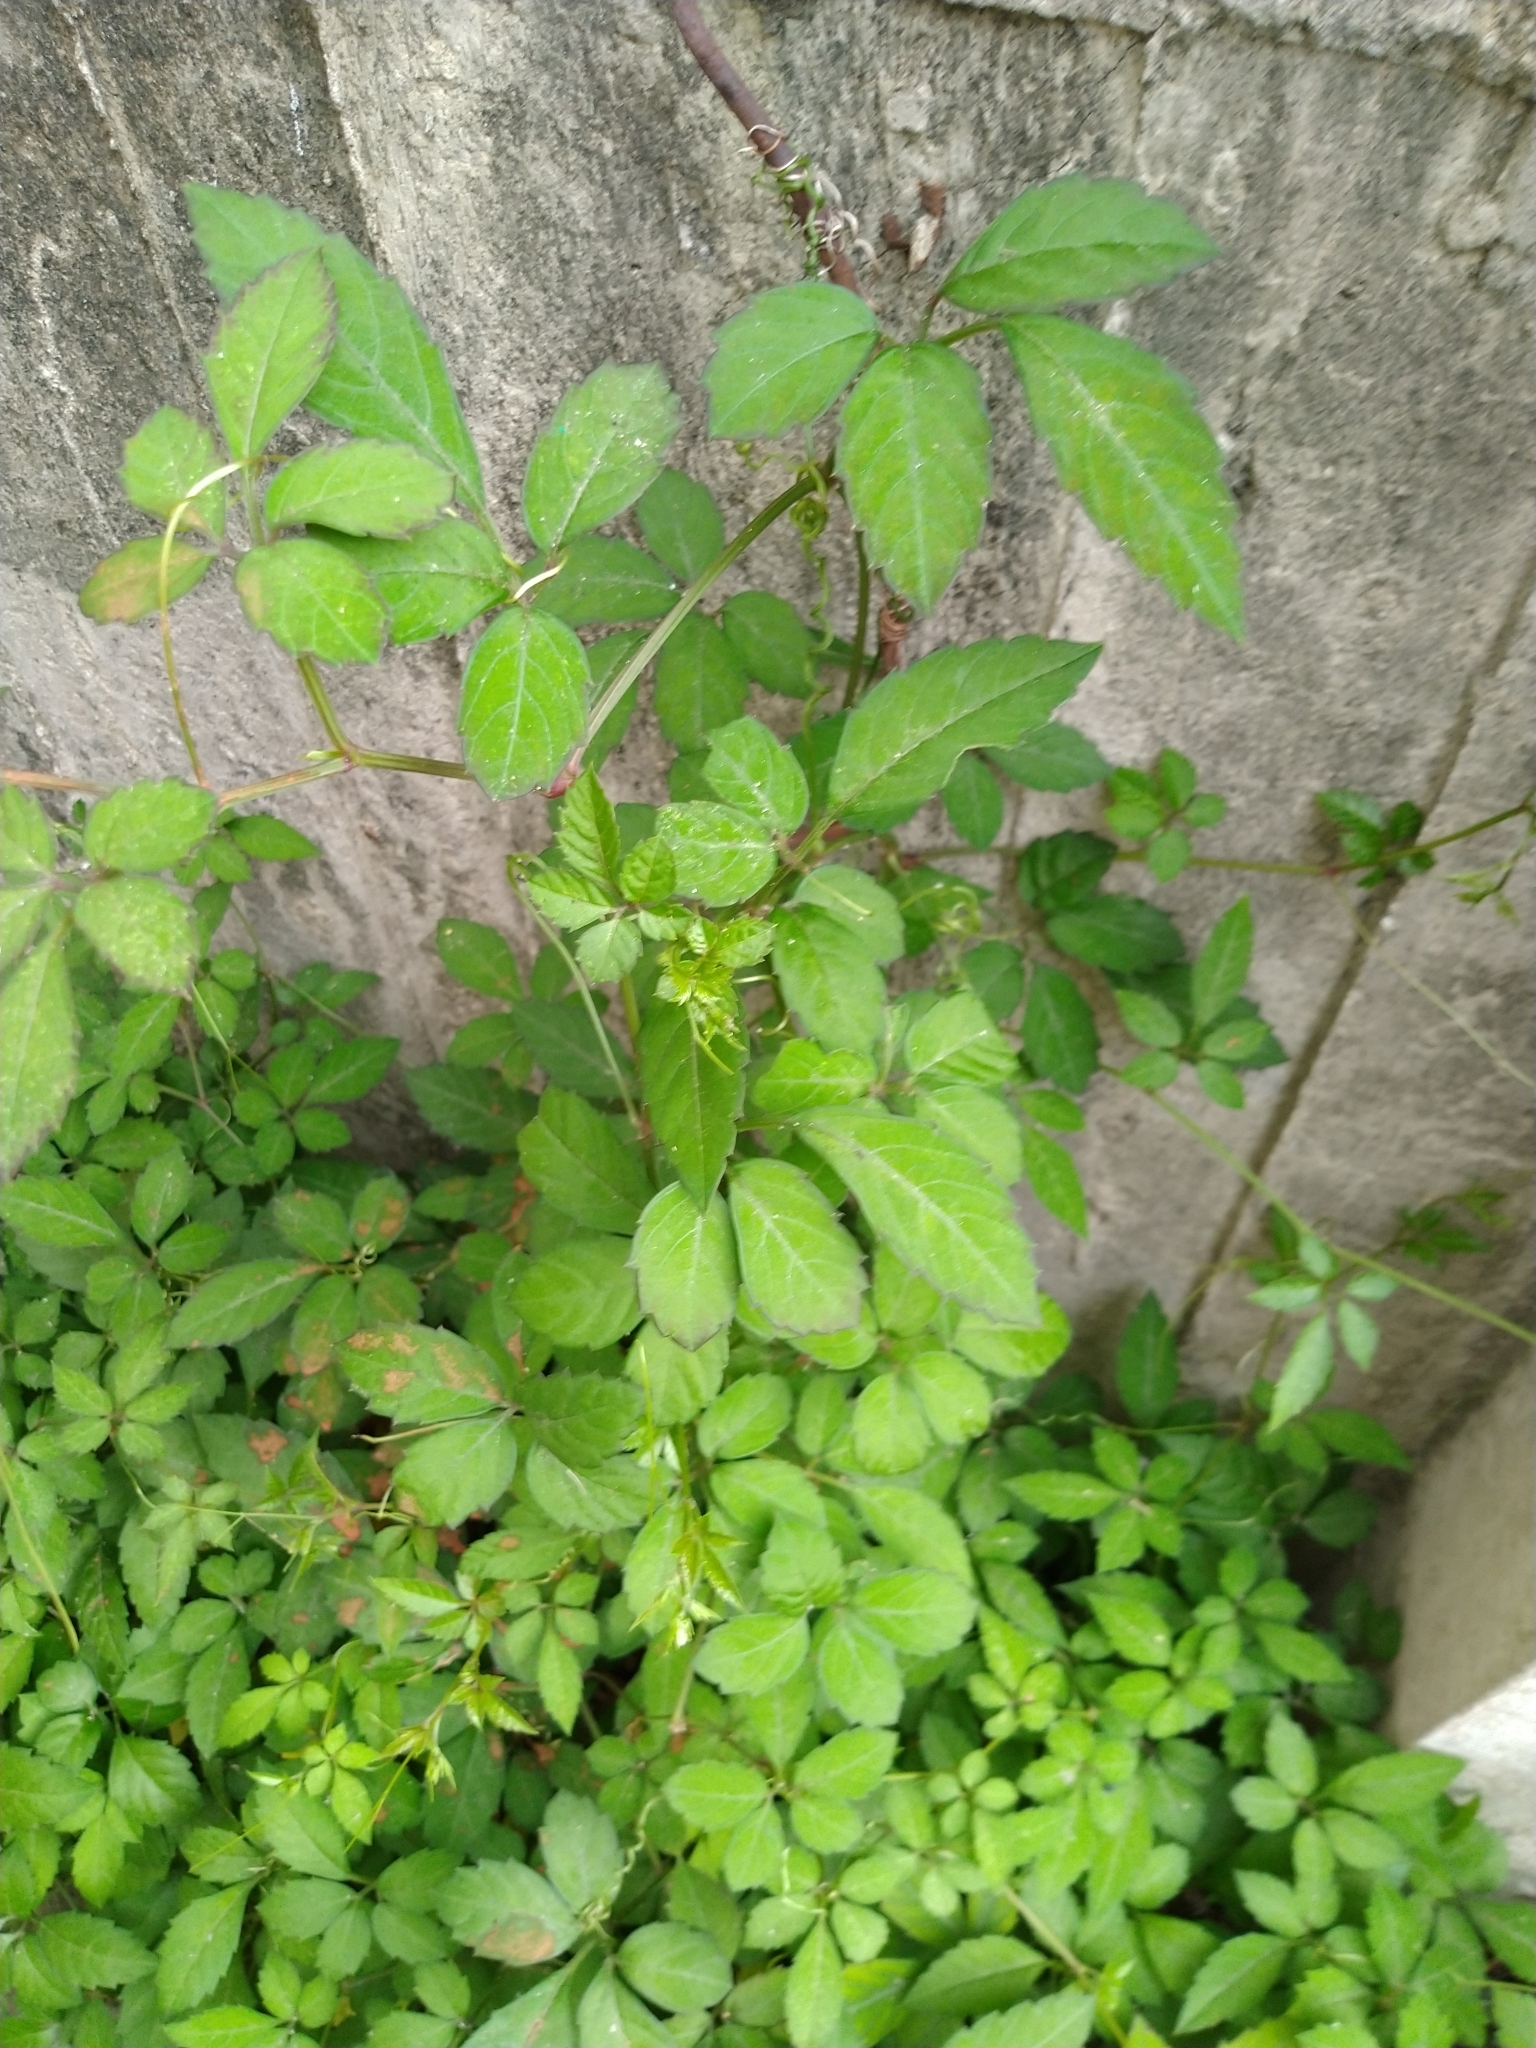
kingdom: Plantae
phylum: Tracheophyta
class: Magnoliopsida
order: Vitales
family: Vitaceae
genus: Causonis
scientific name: Causonis japonica
